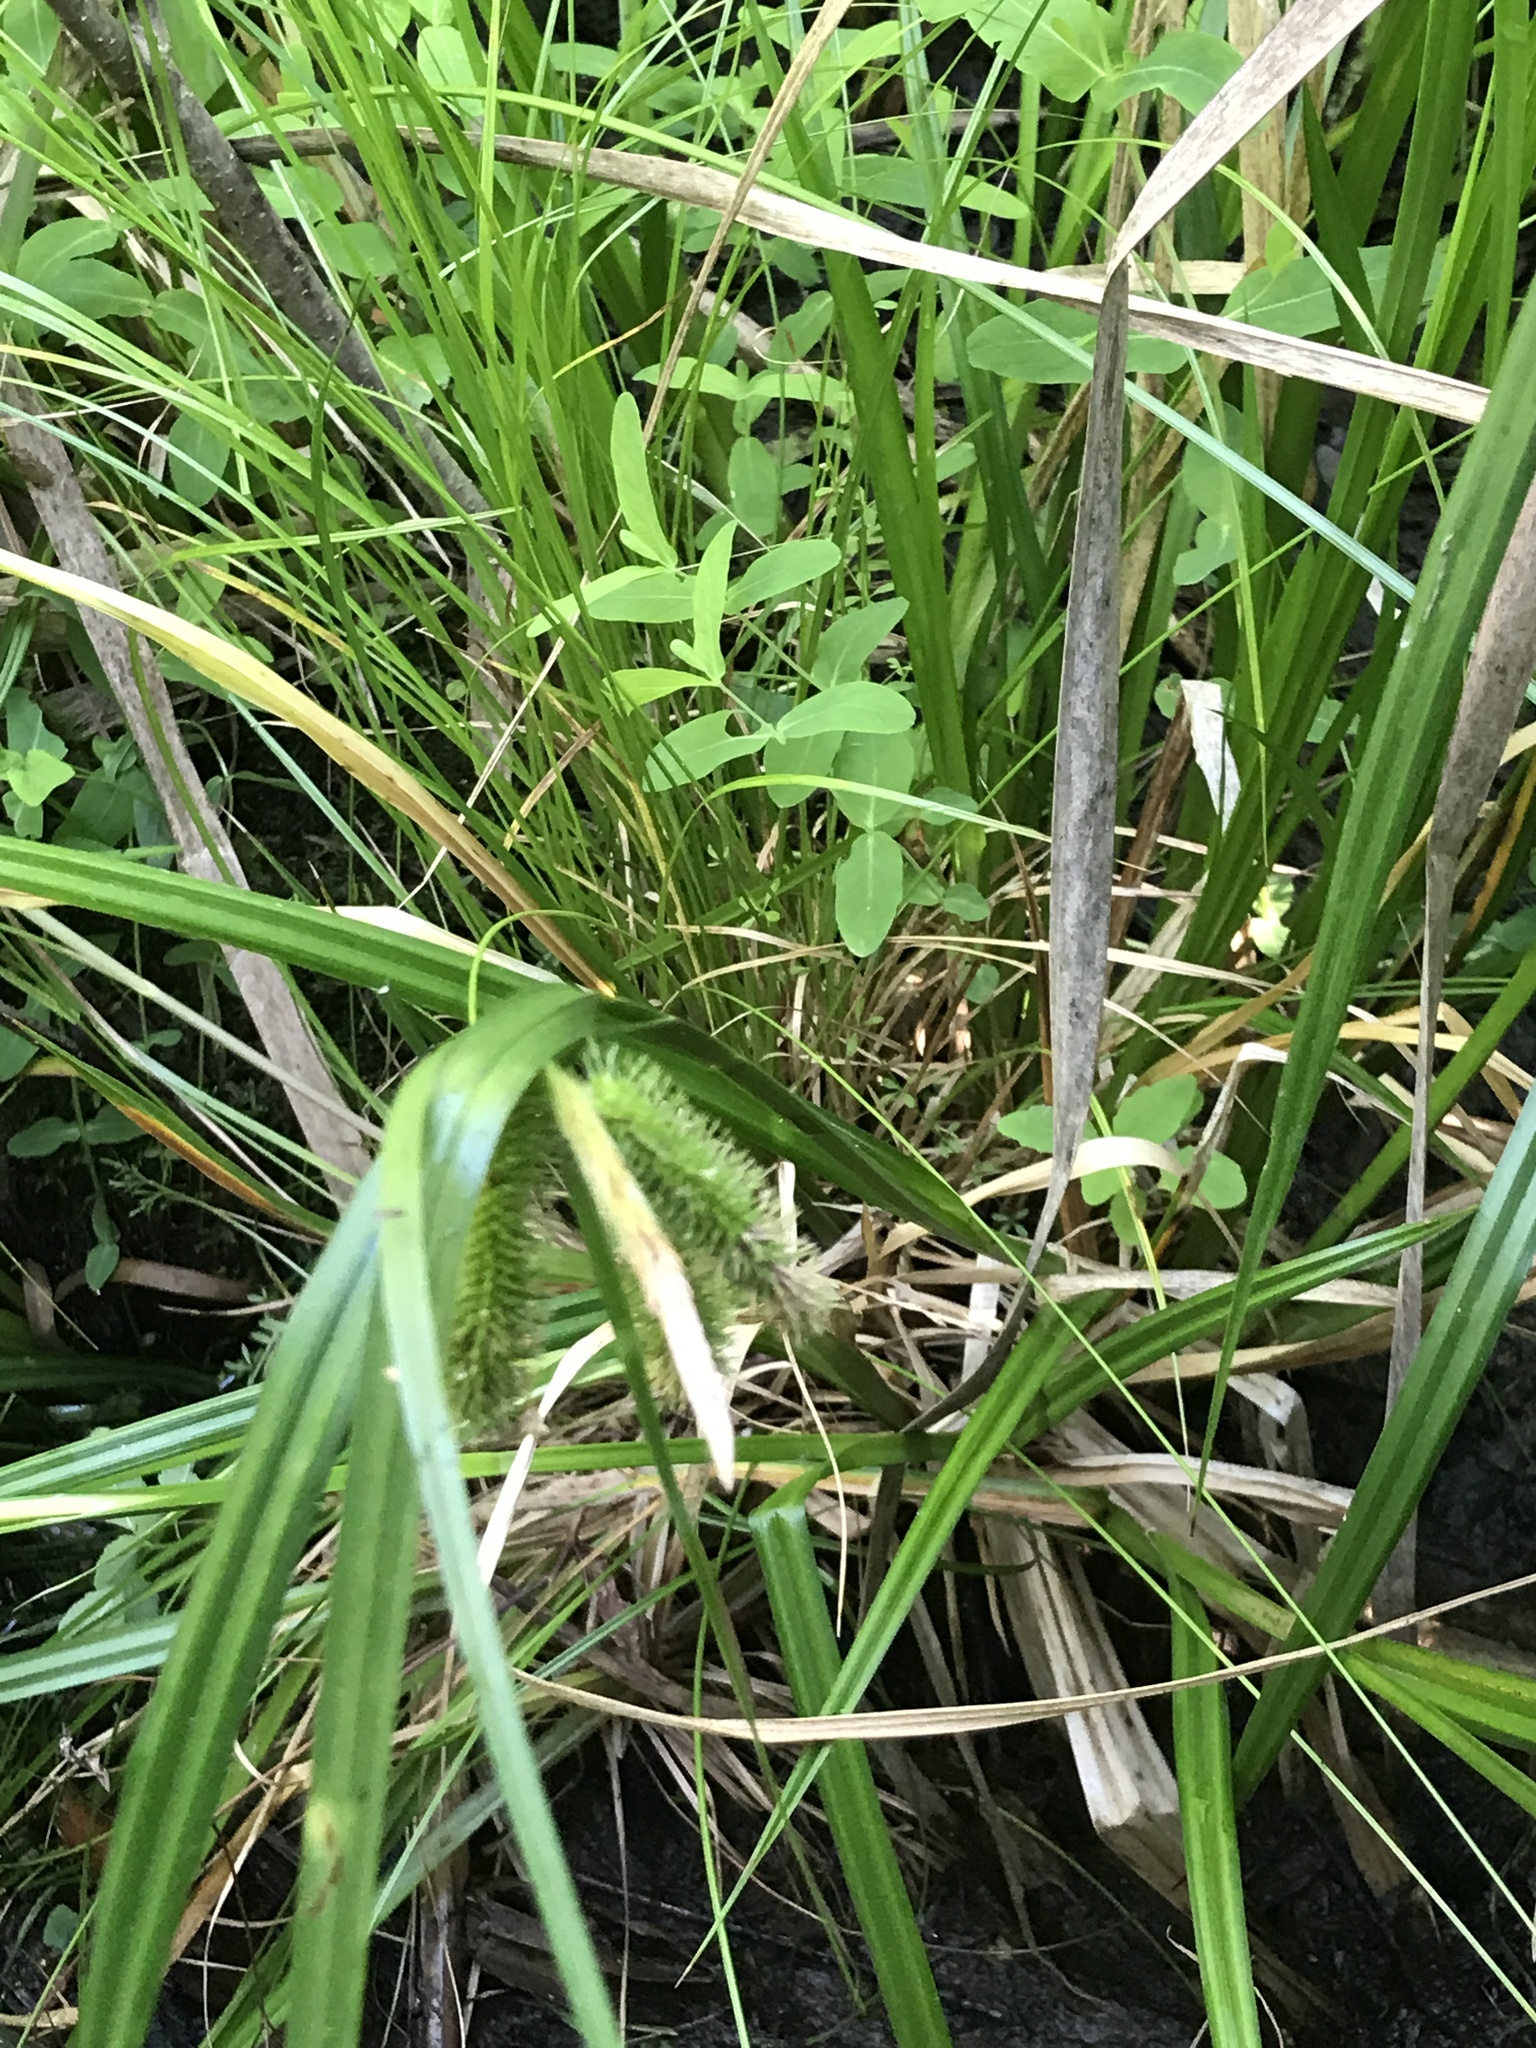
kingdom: Plantae
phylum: Tracheophyta
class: Liliopsida
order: Poales
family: Cyperaceae
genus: Carex
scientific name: Carex comosa
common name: Bristly sedge
